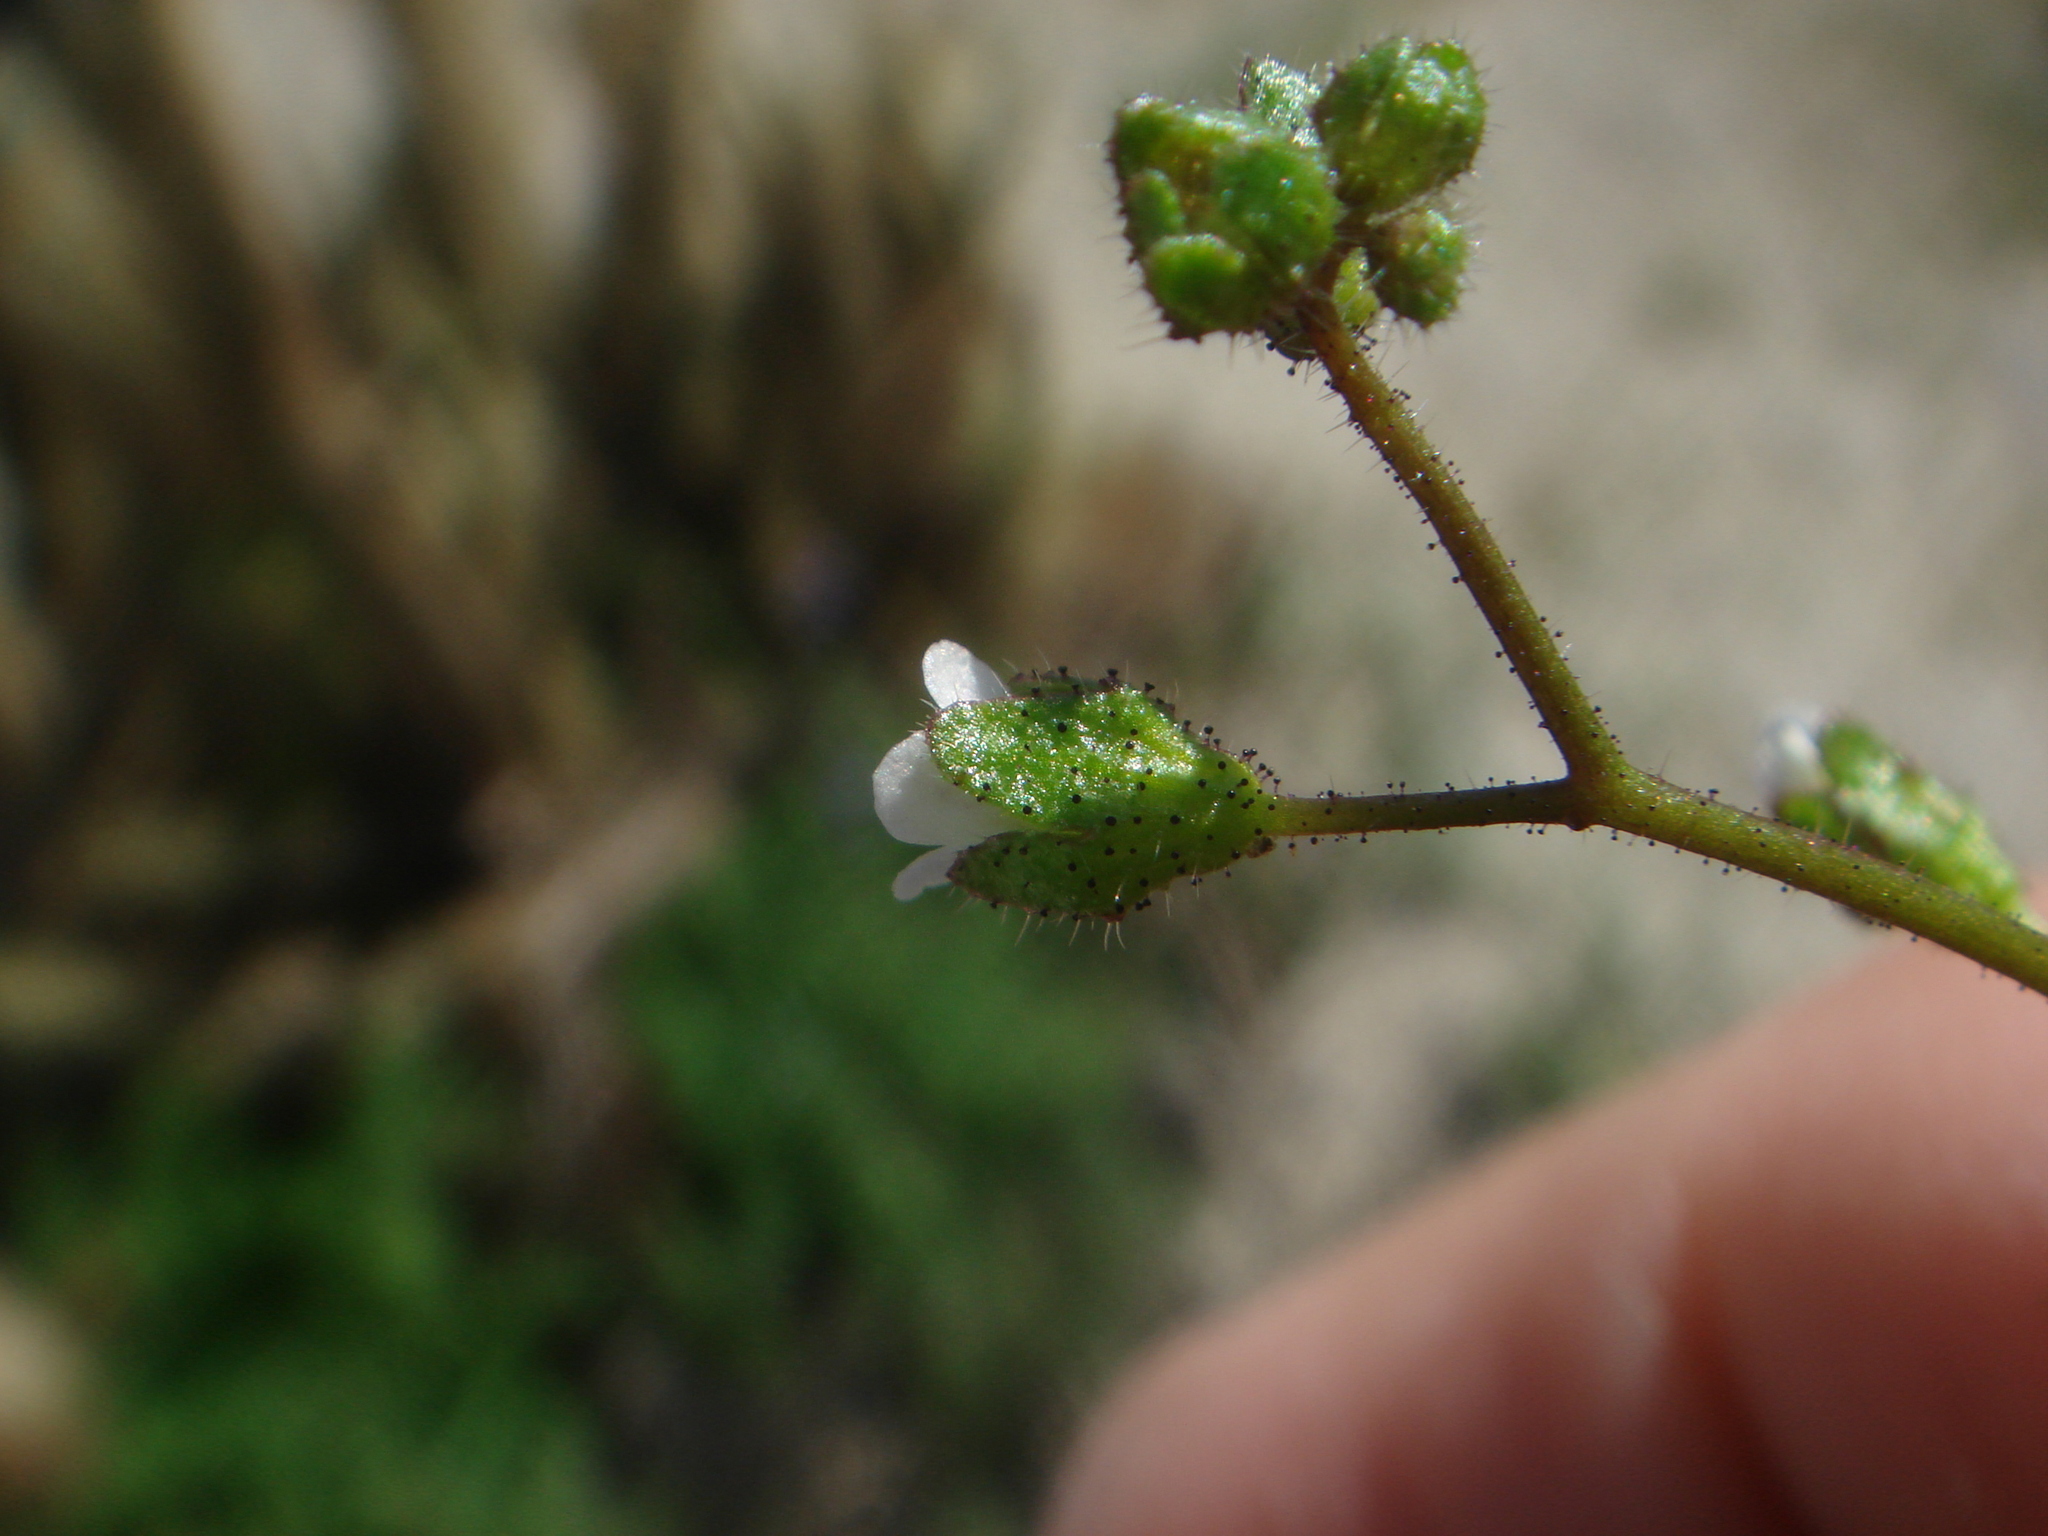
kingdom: Plantae
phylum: Tracheophyta
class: Magnoliopsida
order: Boraginales
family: Hydrophyllaceae
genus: Eucrypta
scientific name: Eucrypta micrantha
